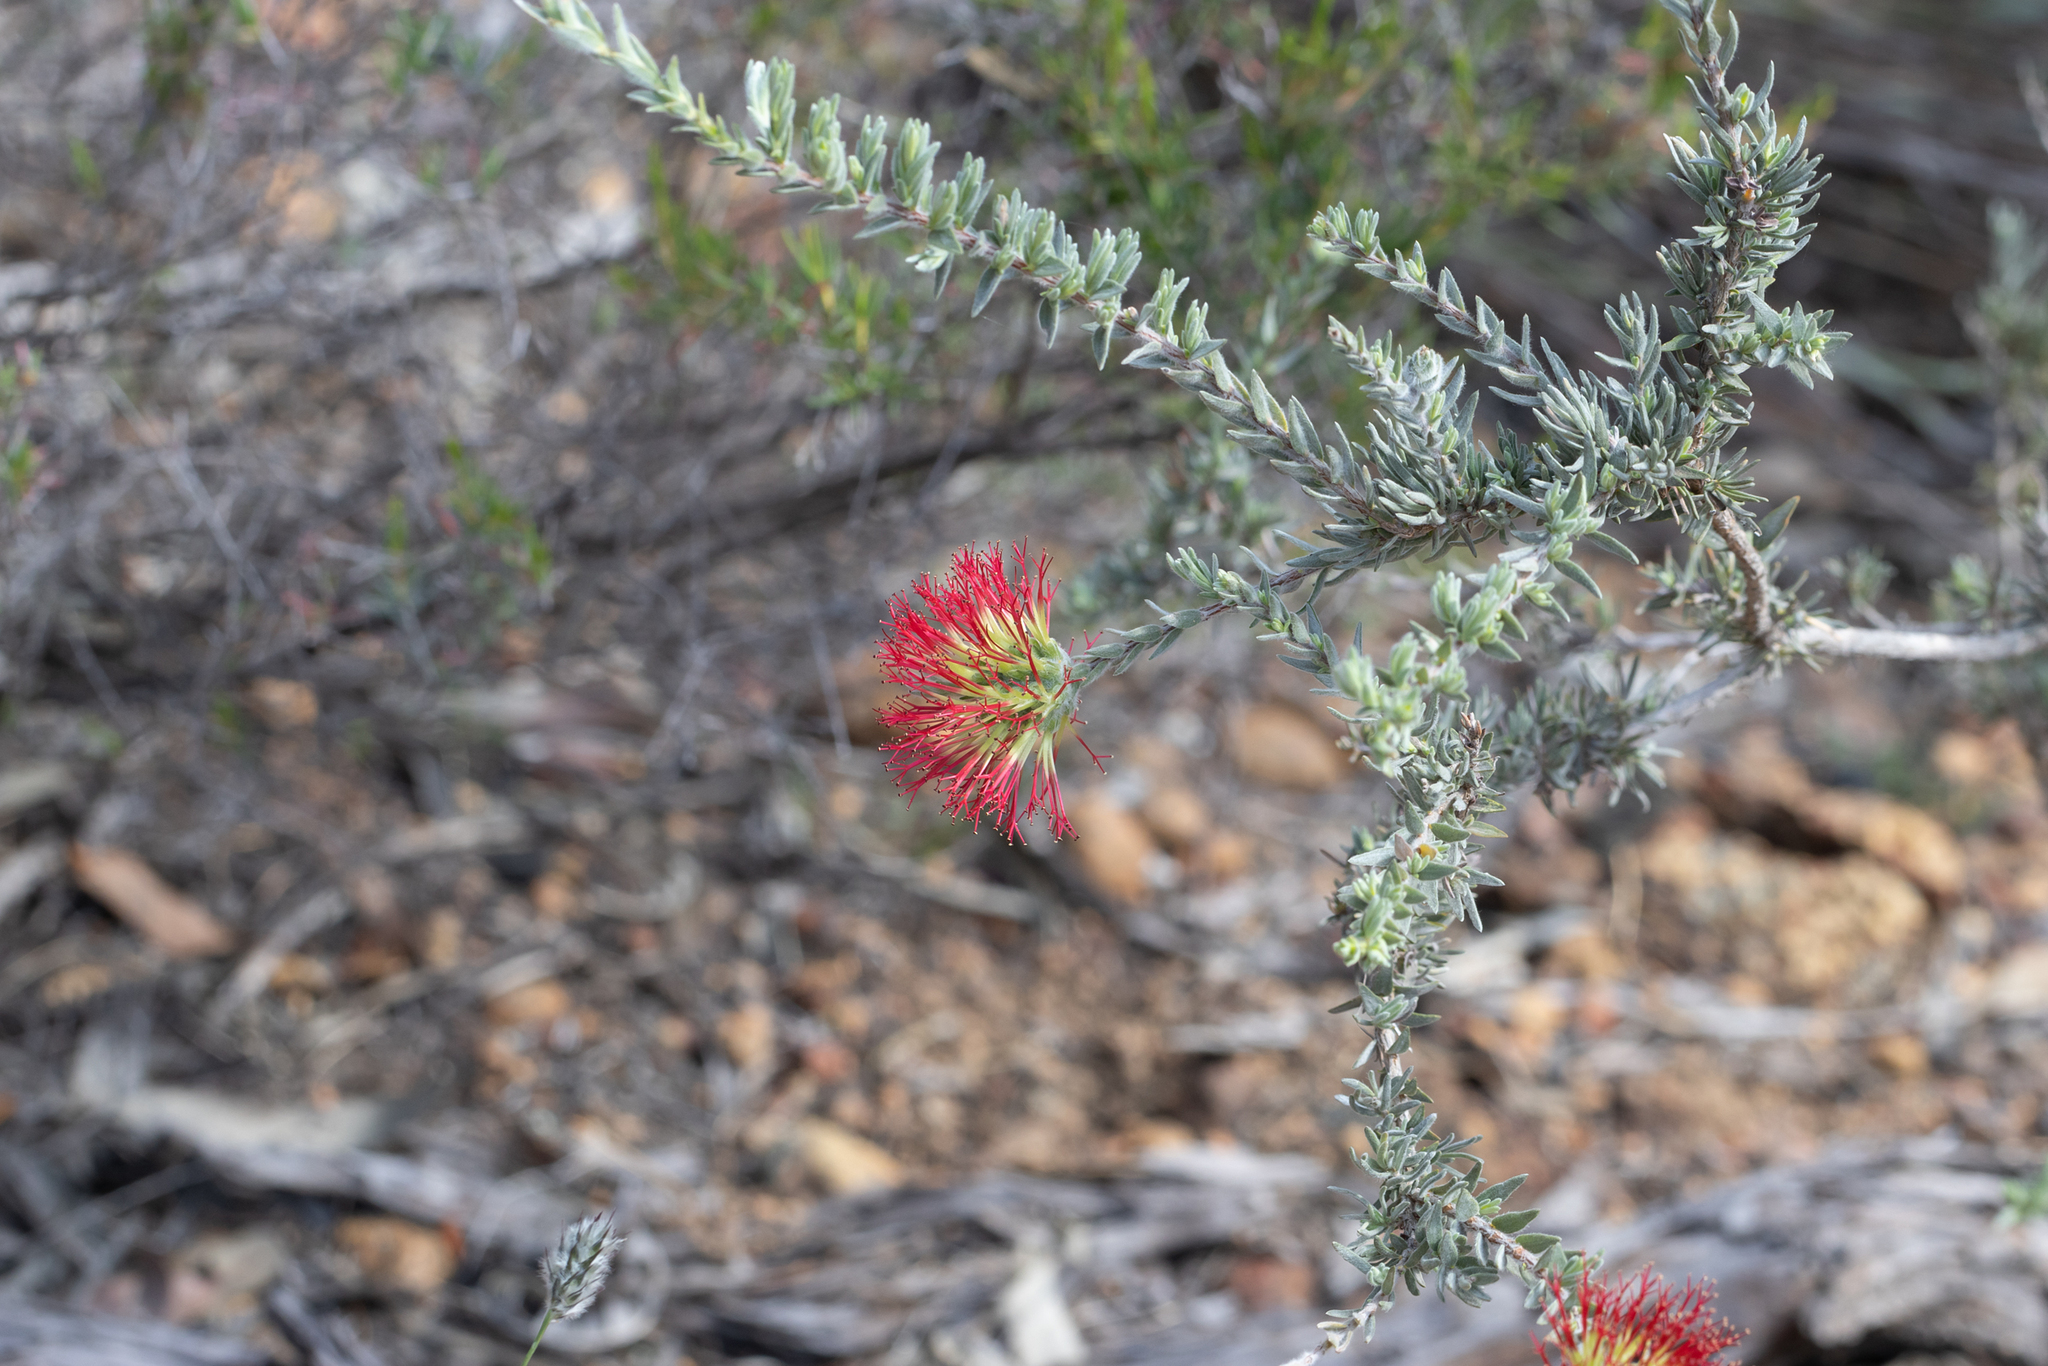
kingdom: Plantae
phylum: Tracheophyta
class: Magnoliopsida
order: Myrtales
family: Myrtaceae
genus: Melaleuca
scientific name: Melaleuca cinerea
